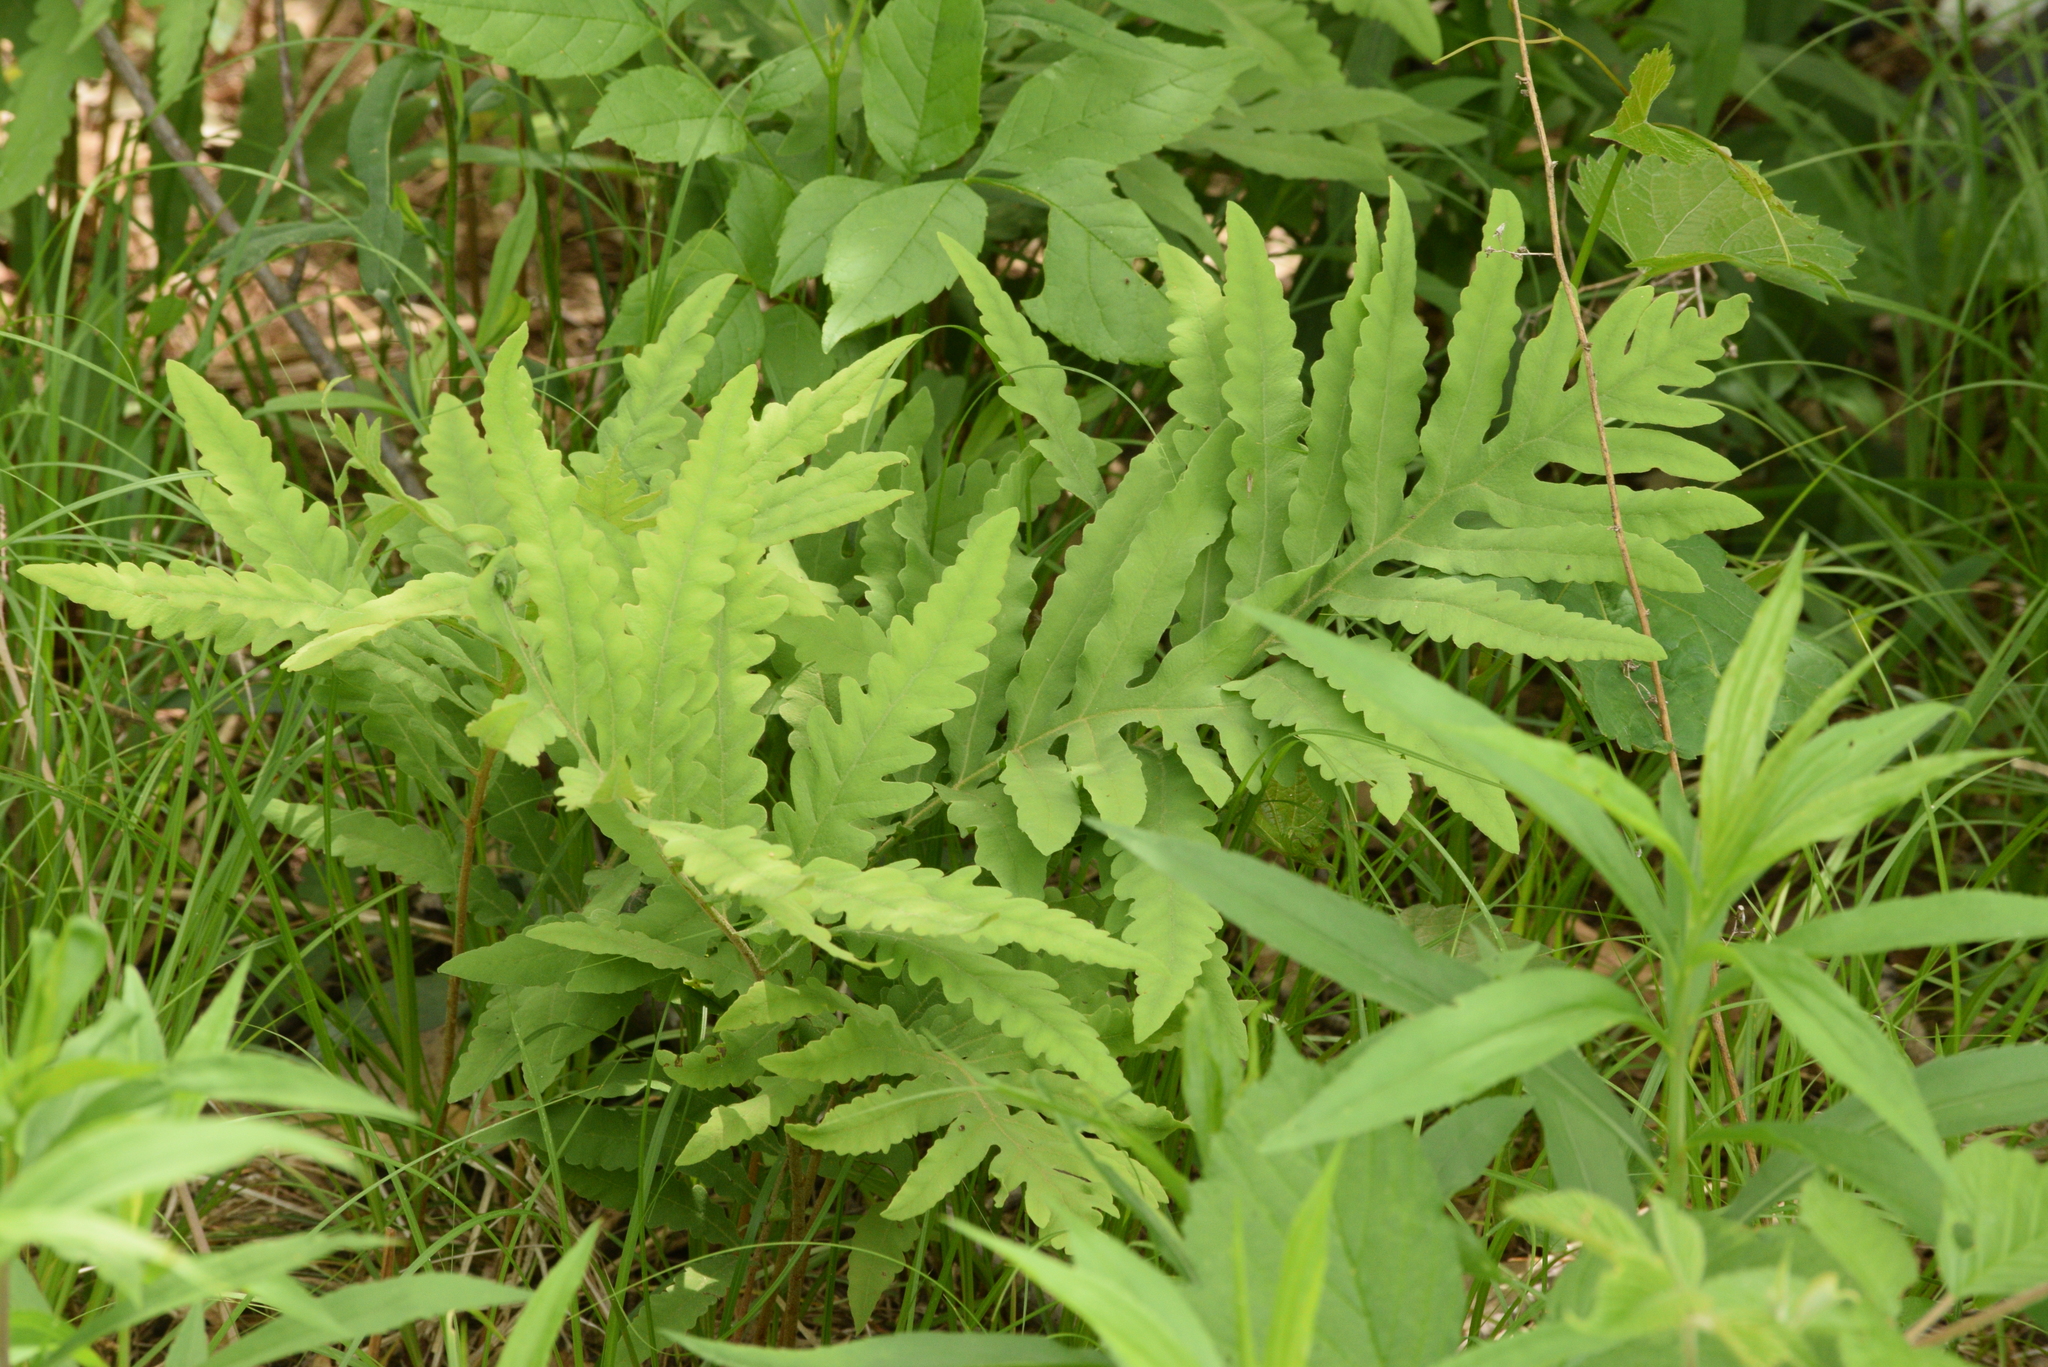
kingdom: Plantae
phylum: Tracheophyta
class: Polypodiopsida
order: Polypodiales
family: Onocleaceae
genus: Onoclea
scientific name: Onoclea sensibilis
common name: Sensitive fern
